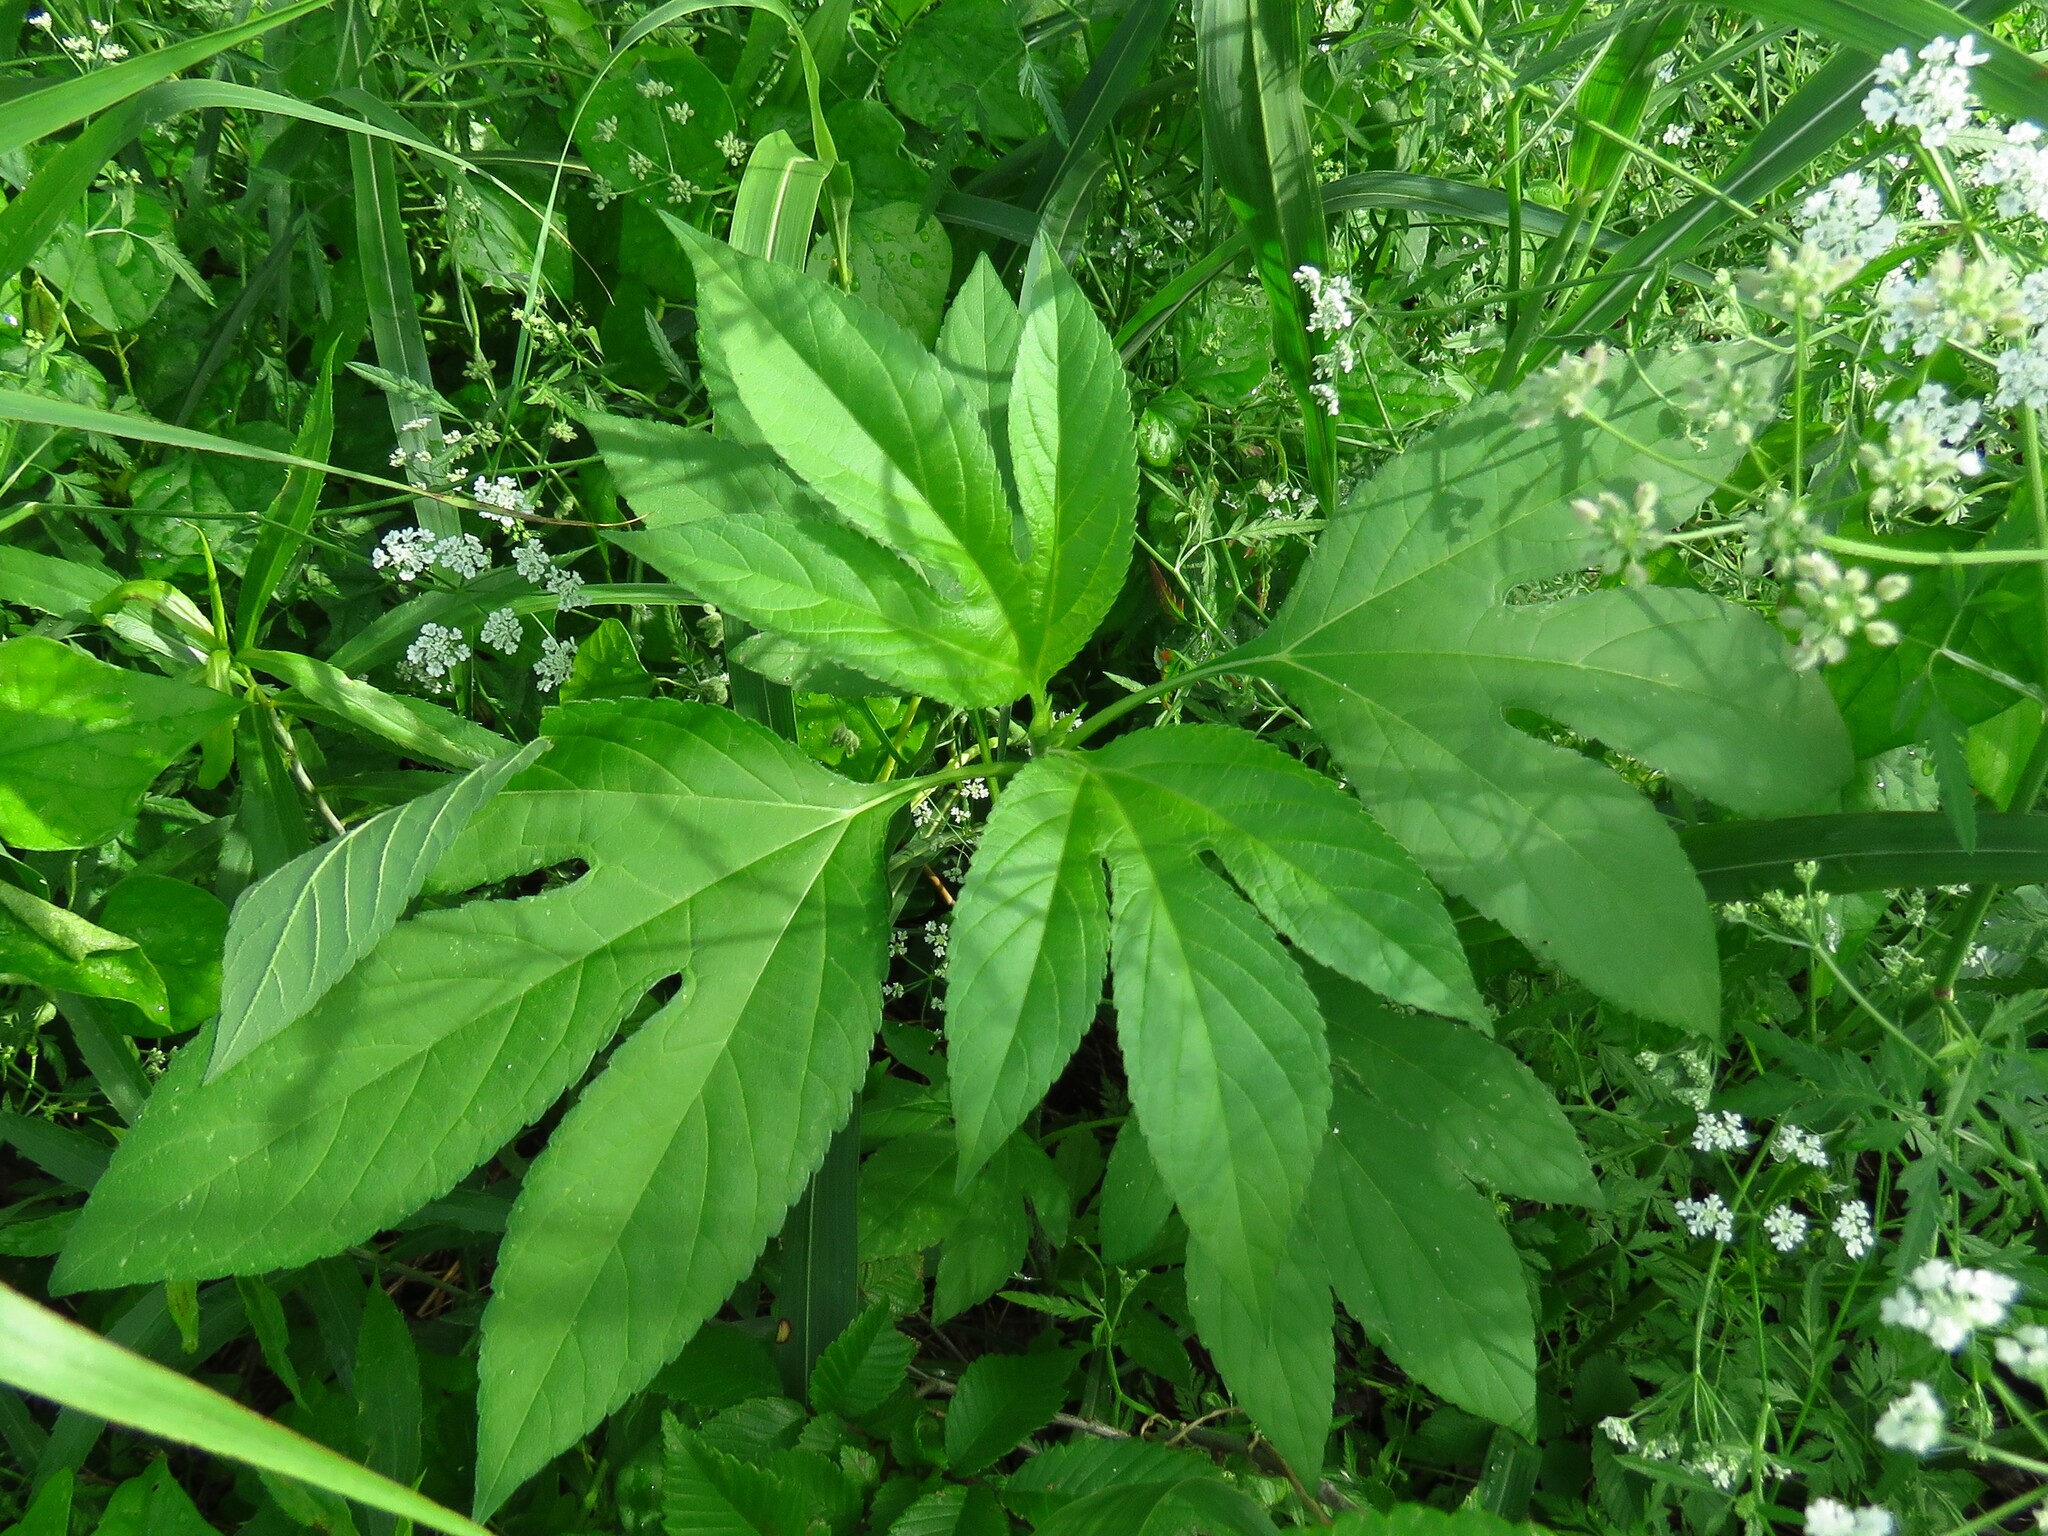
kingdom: Plantae
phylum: Tracheophyta
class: Magnoliopsida
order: Asterales
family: Asteraceae
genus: Ambrosia
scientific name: Ambrosia trifida
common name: Giant ragweed
